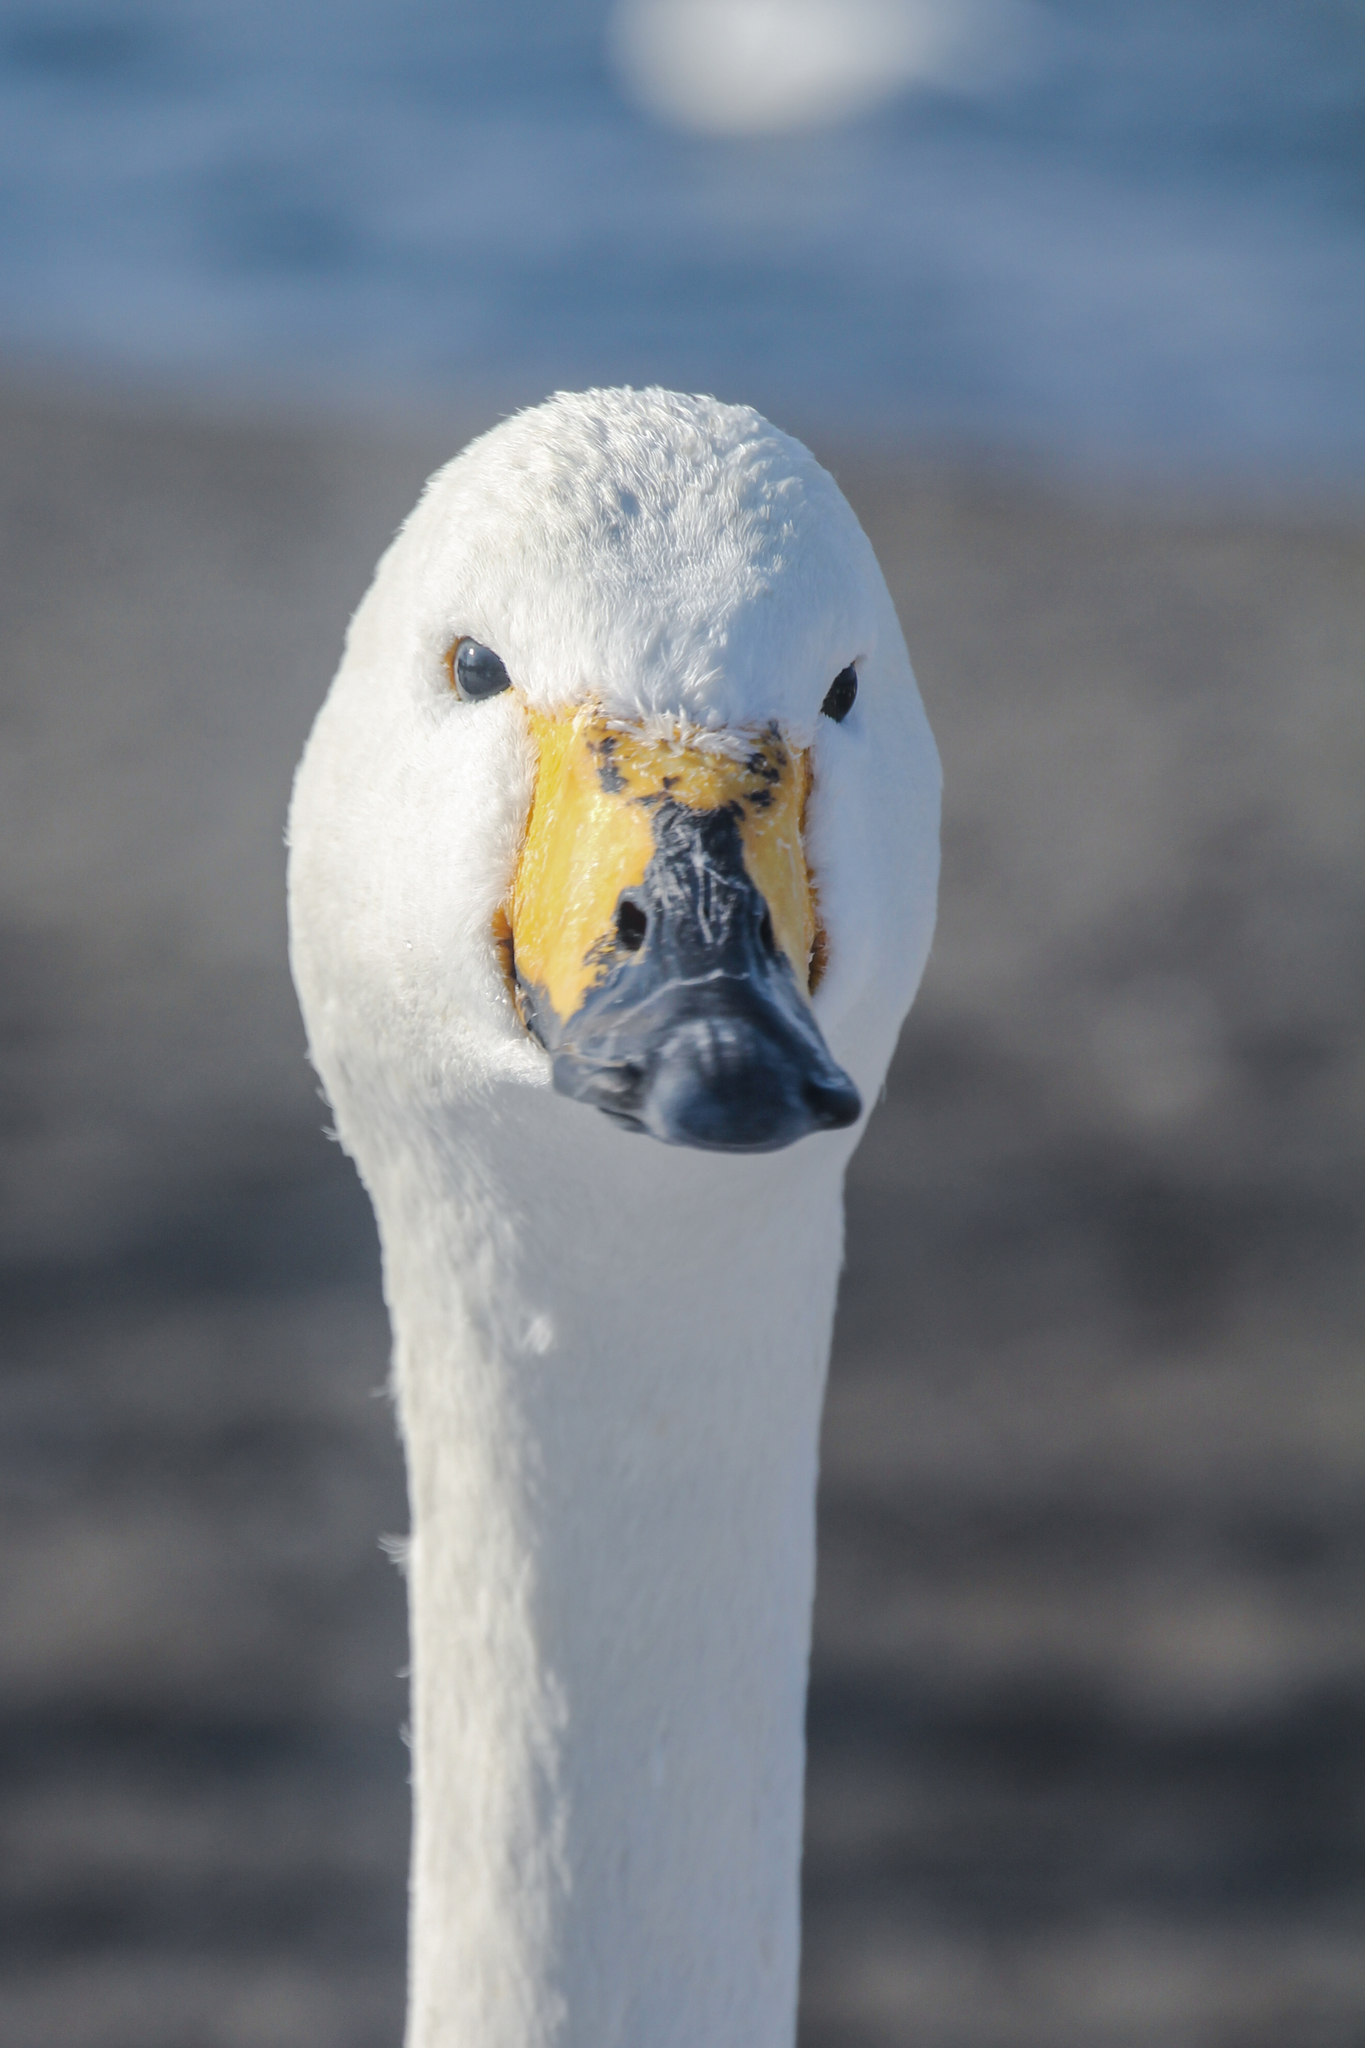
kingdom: Animalia
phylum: Chordata
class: Aves
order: Anseriformes
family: Anatidae
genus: Cygnus
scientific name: Cygnus cygnus
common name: Whooper swan
